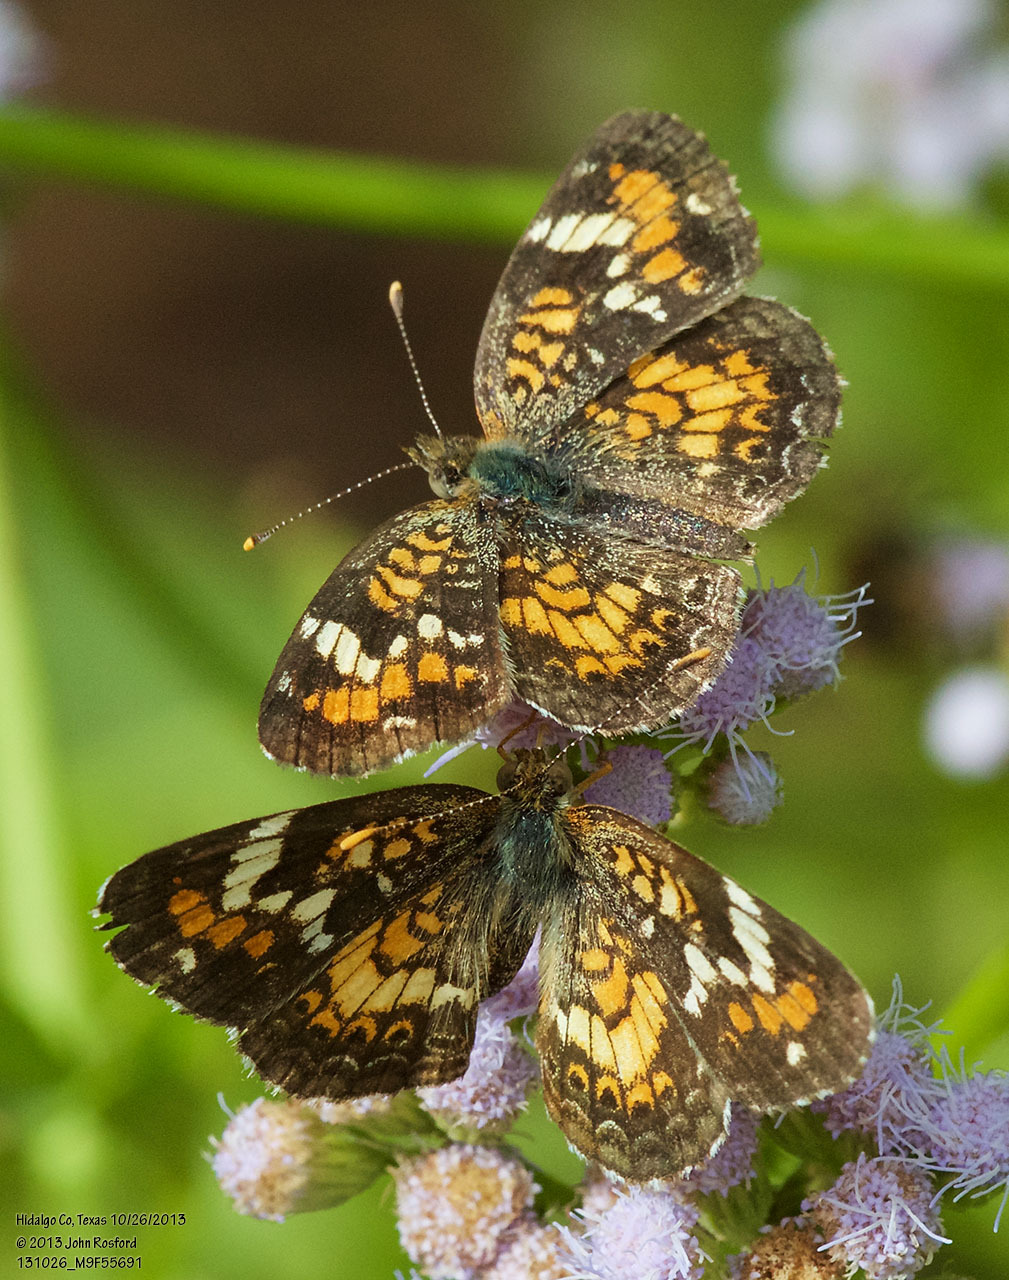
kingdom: Animalia
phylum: Arthropoda
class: Insecta
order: Lepidoptera
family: Nymphalidae
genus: Phyciodes
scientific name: Phyciodes phaon
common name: Phaon crescent
